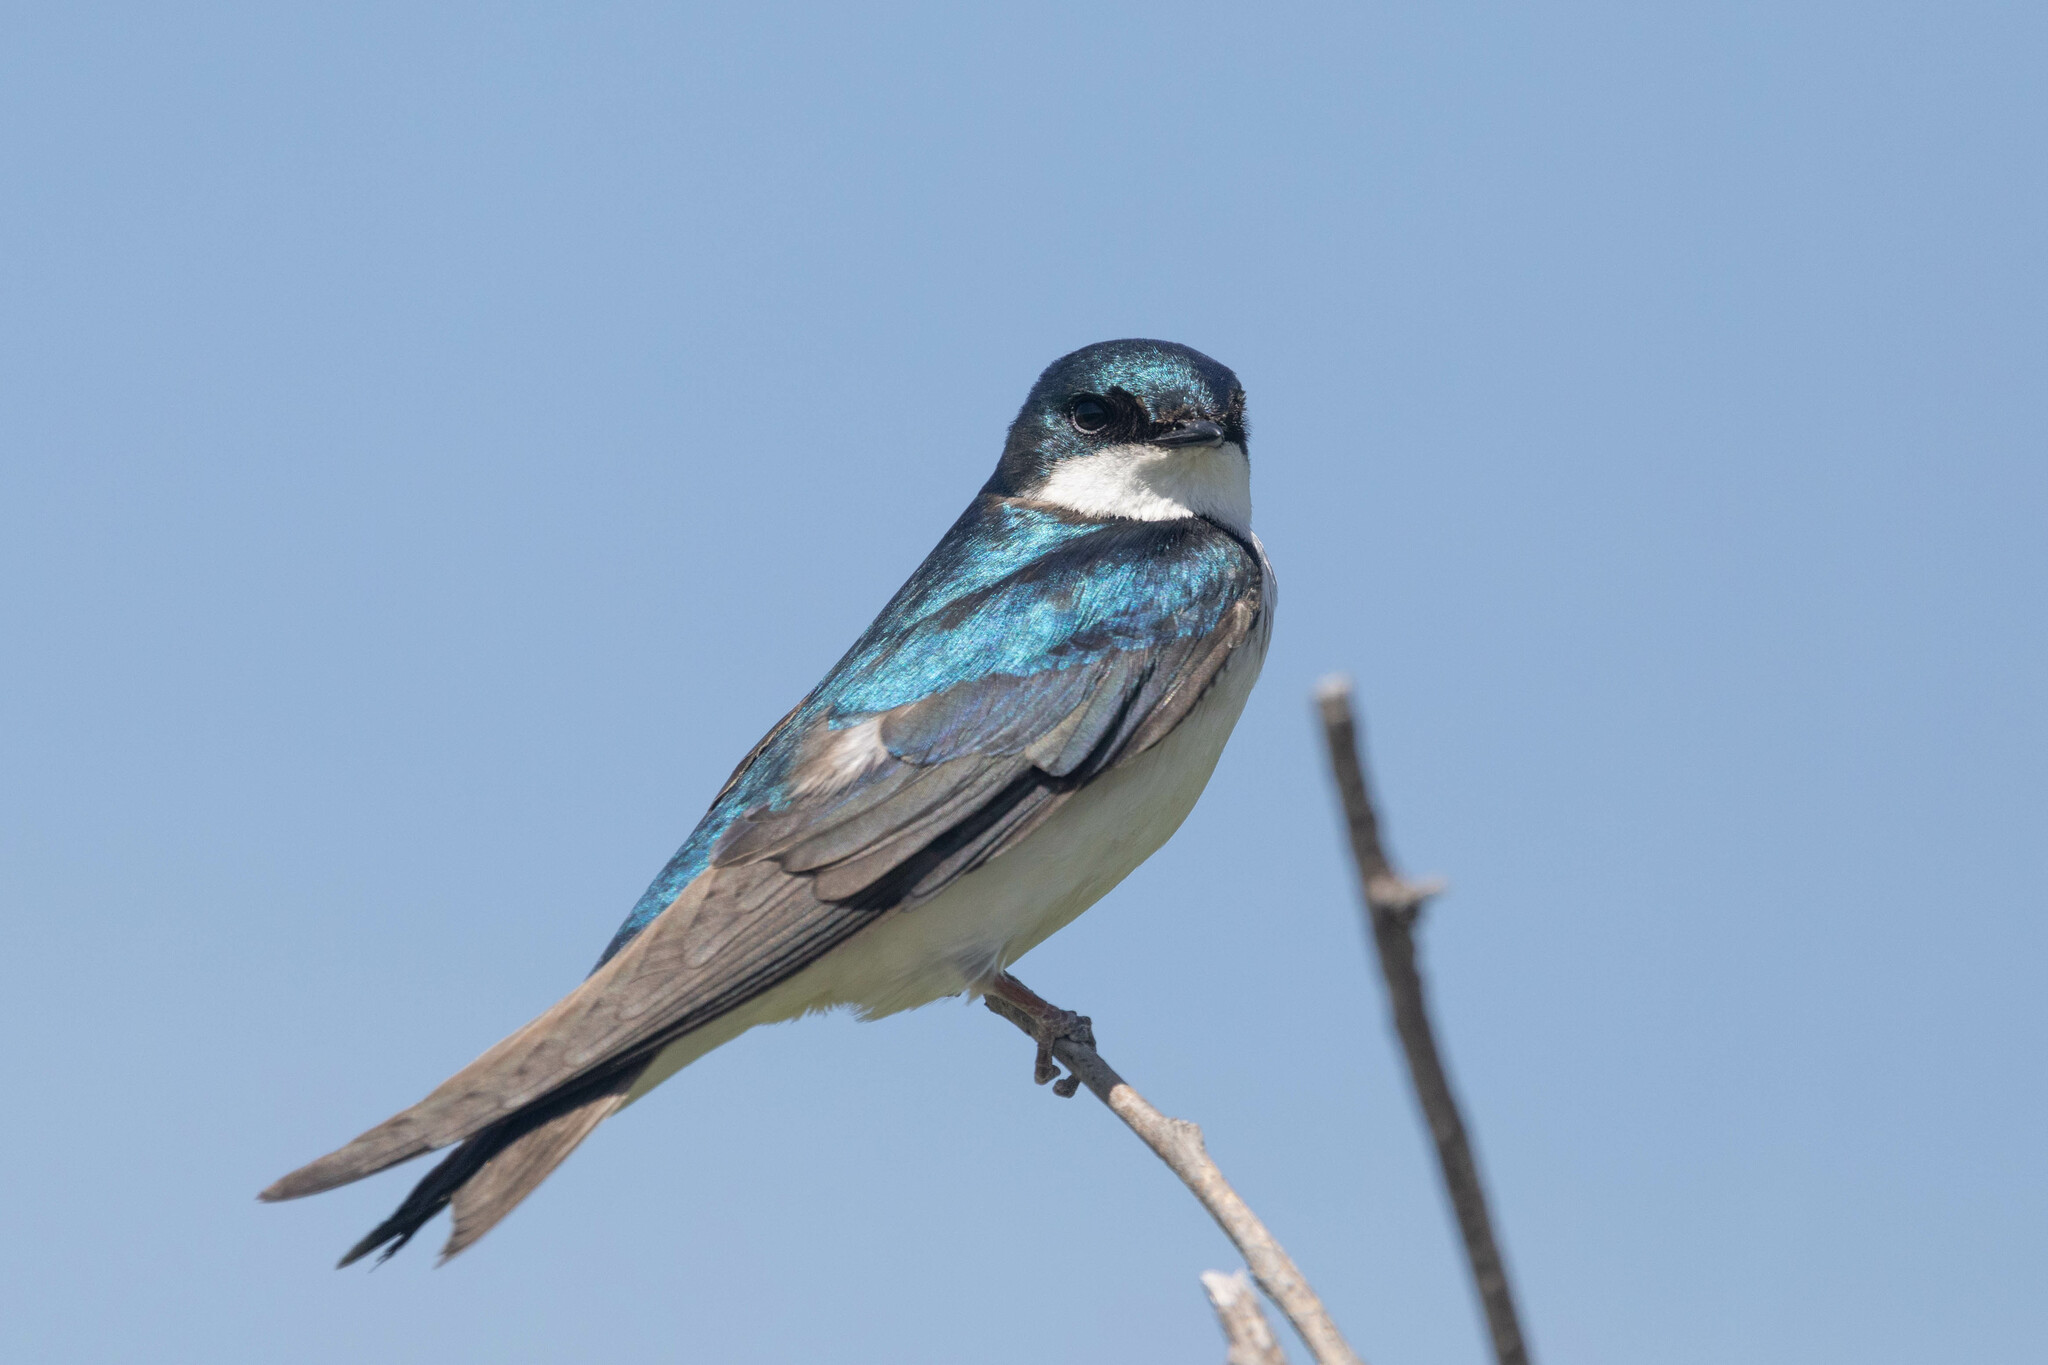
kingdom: Animalia
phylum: Chordata
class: Aves
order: Passeriformes
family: Hirundinidae
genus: Tachycineta
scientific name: Tachycineta bicolor
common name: Tree swallow
